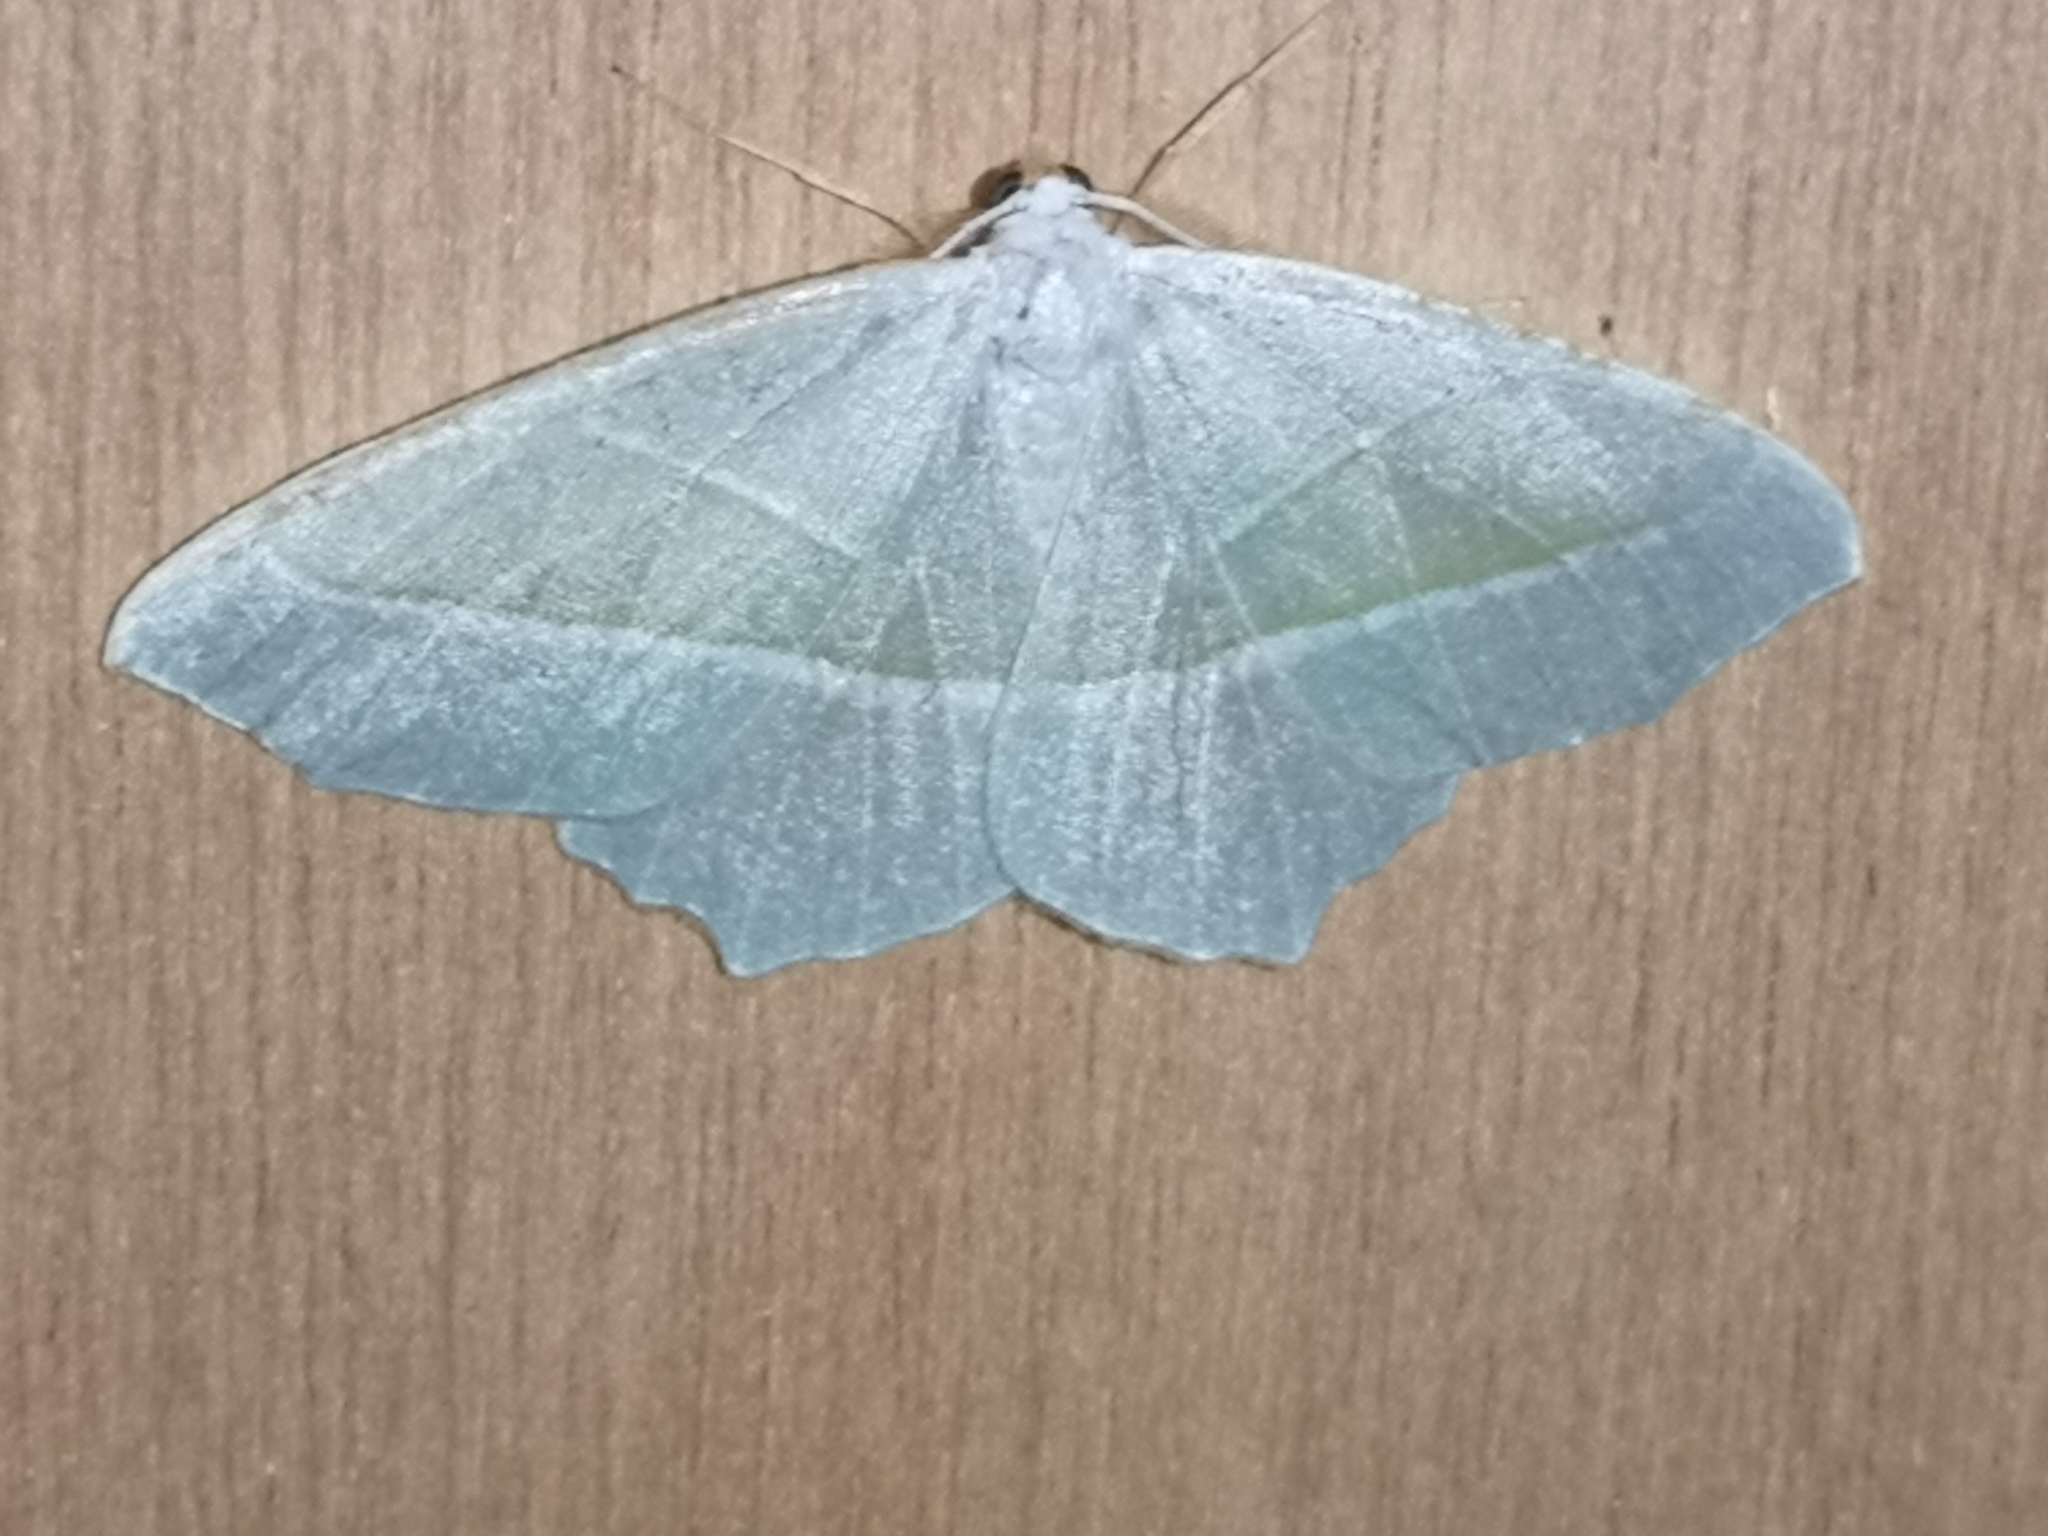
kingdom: Animalia
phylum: Arthropoda
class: Insecta
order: Lepidoptera
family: Geometridae
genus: Campaea
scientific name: Campaea margaritaria
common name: Light emerald
